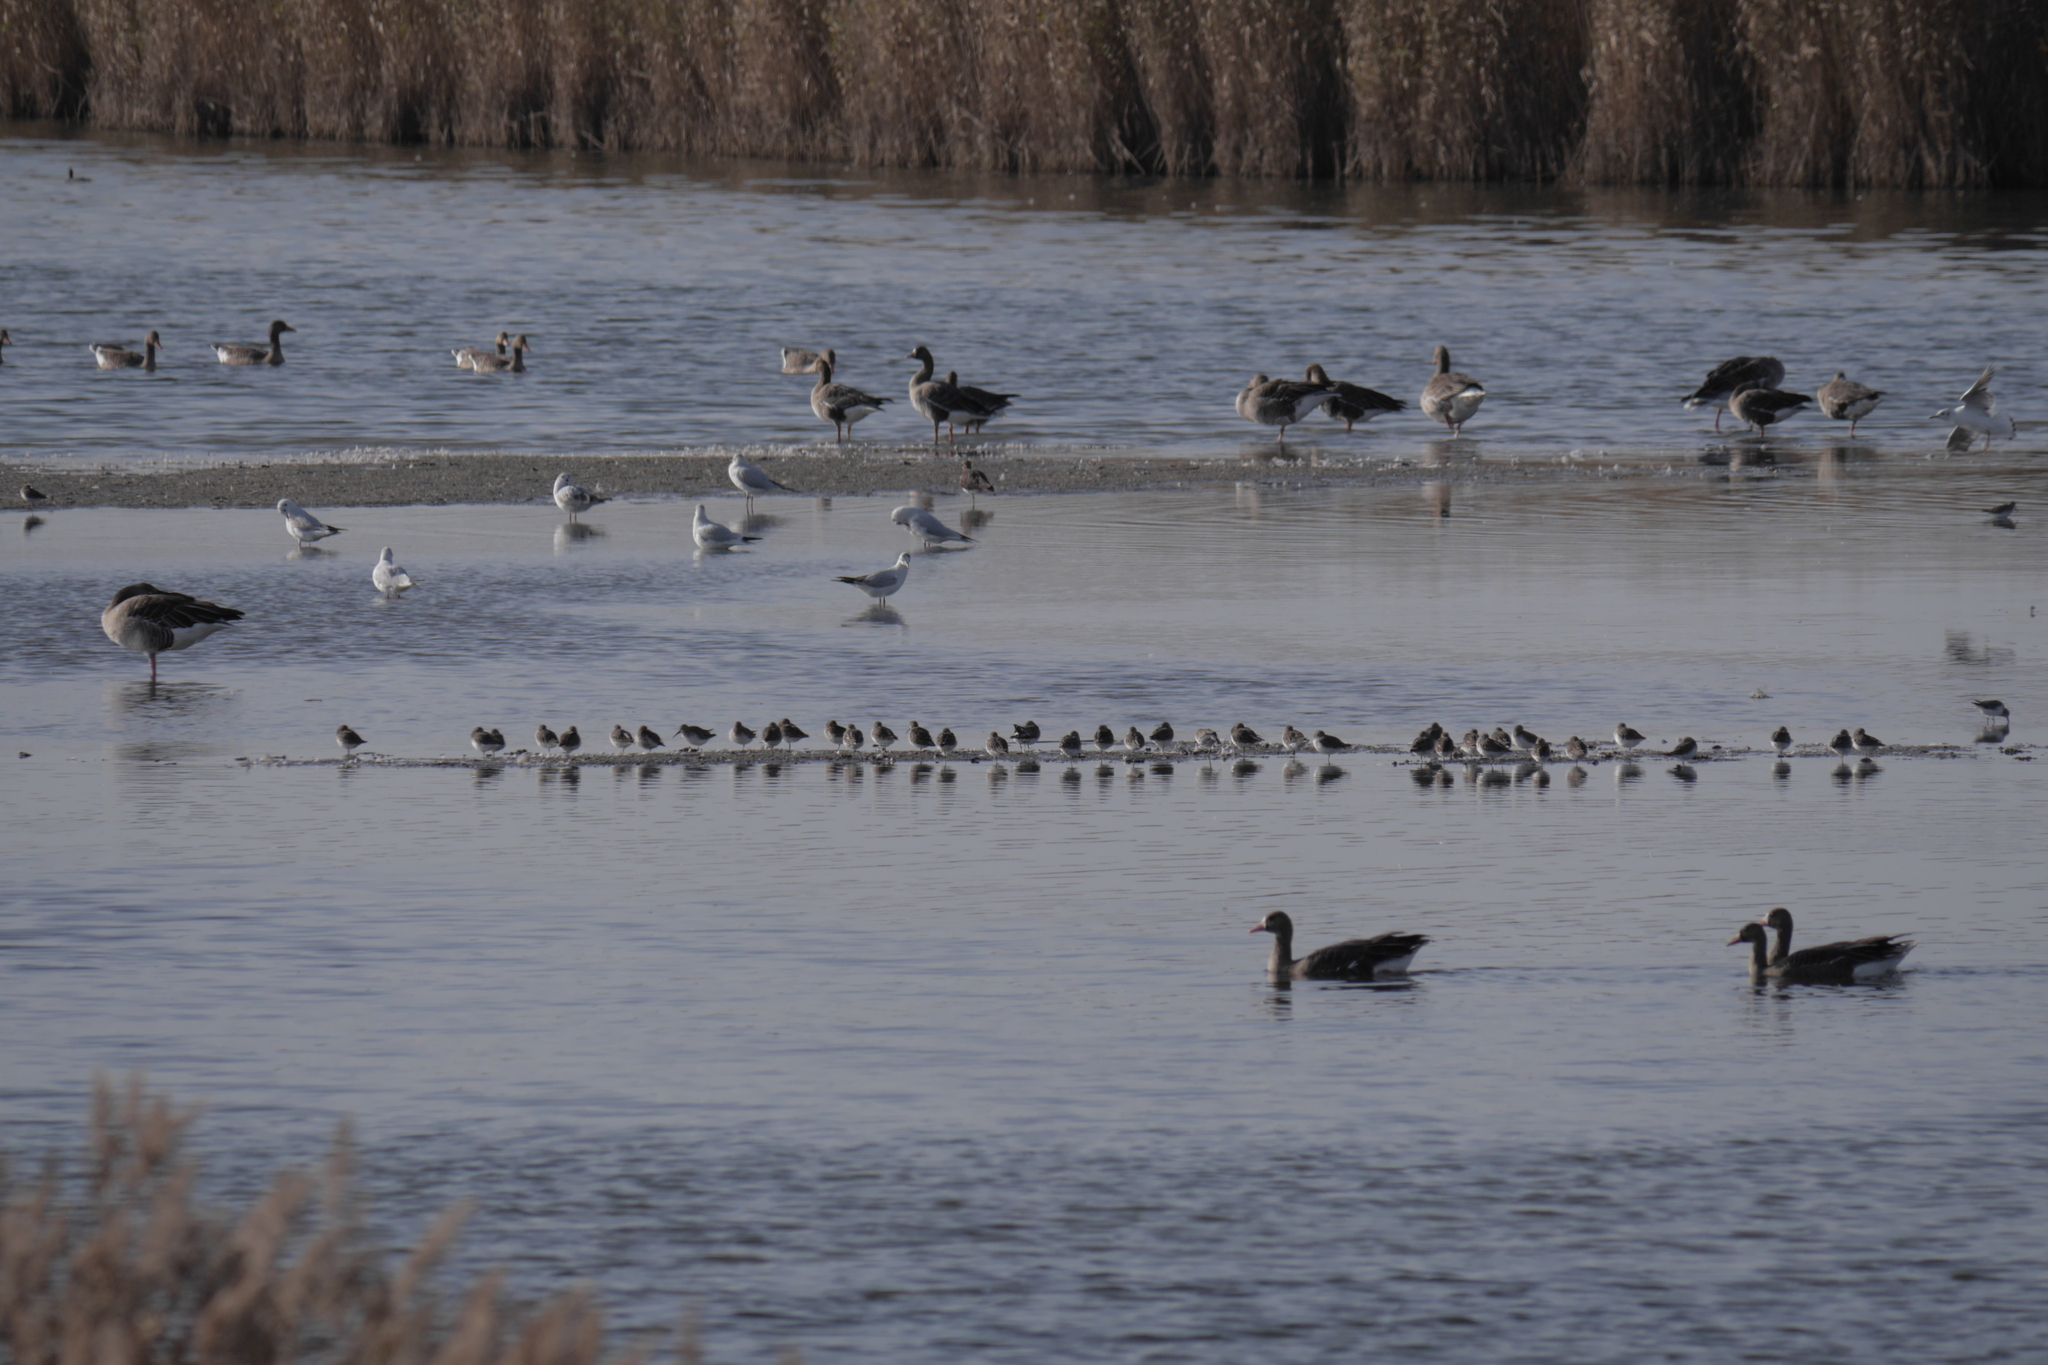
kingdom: Animalia
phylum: Chordata
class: Aves
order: Charadriiformes
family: Scolopacidae
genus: Calidris
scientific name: Calidris alpina
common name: Dunlin
